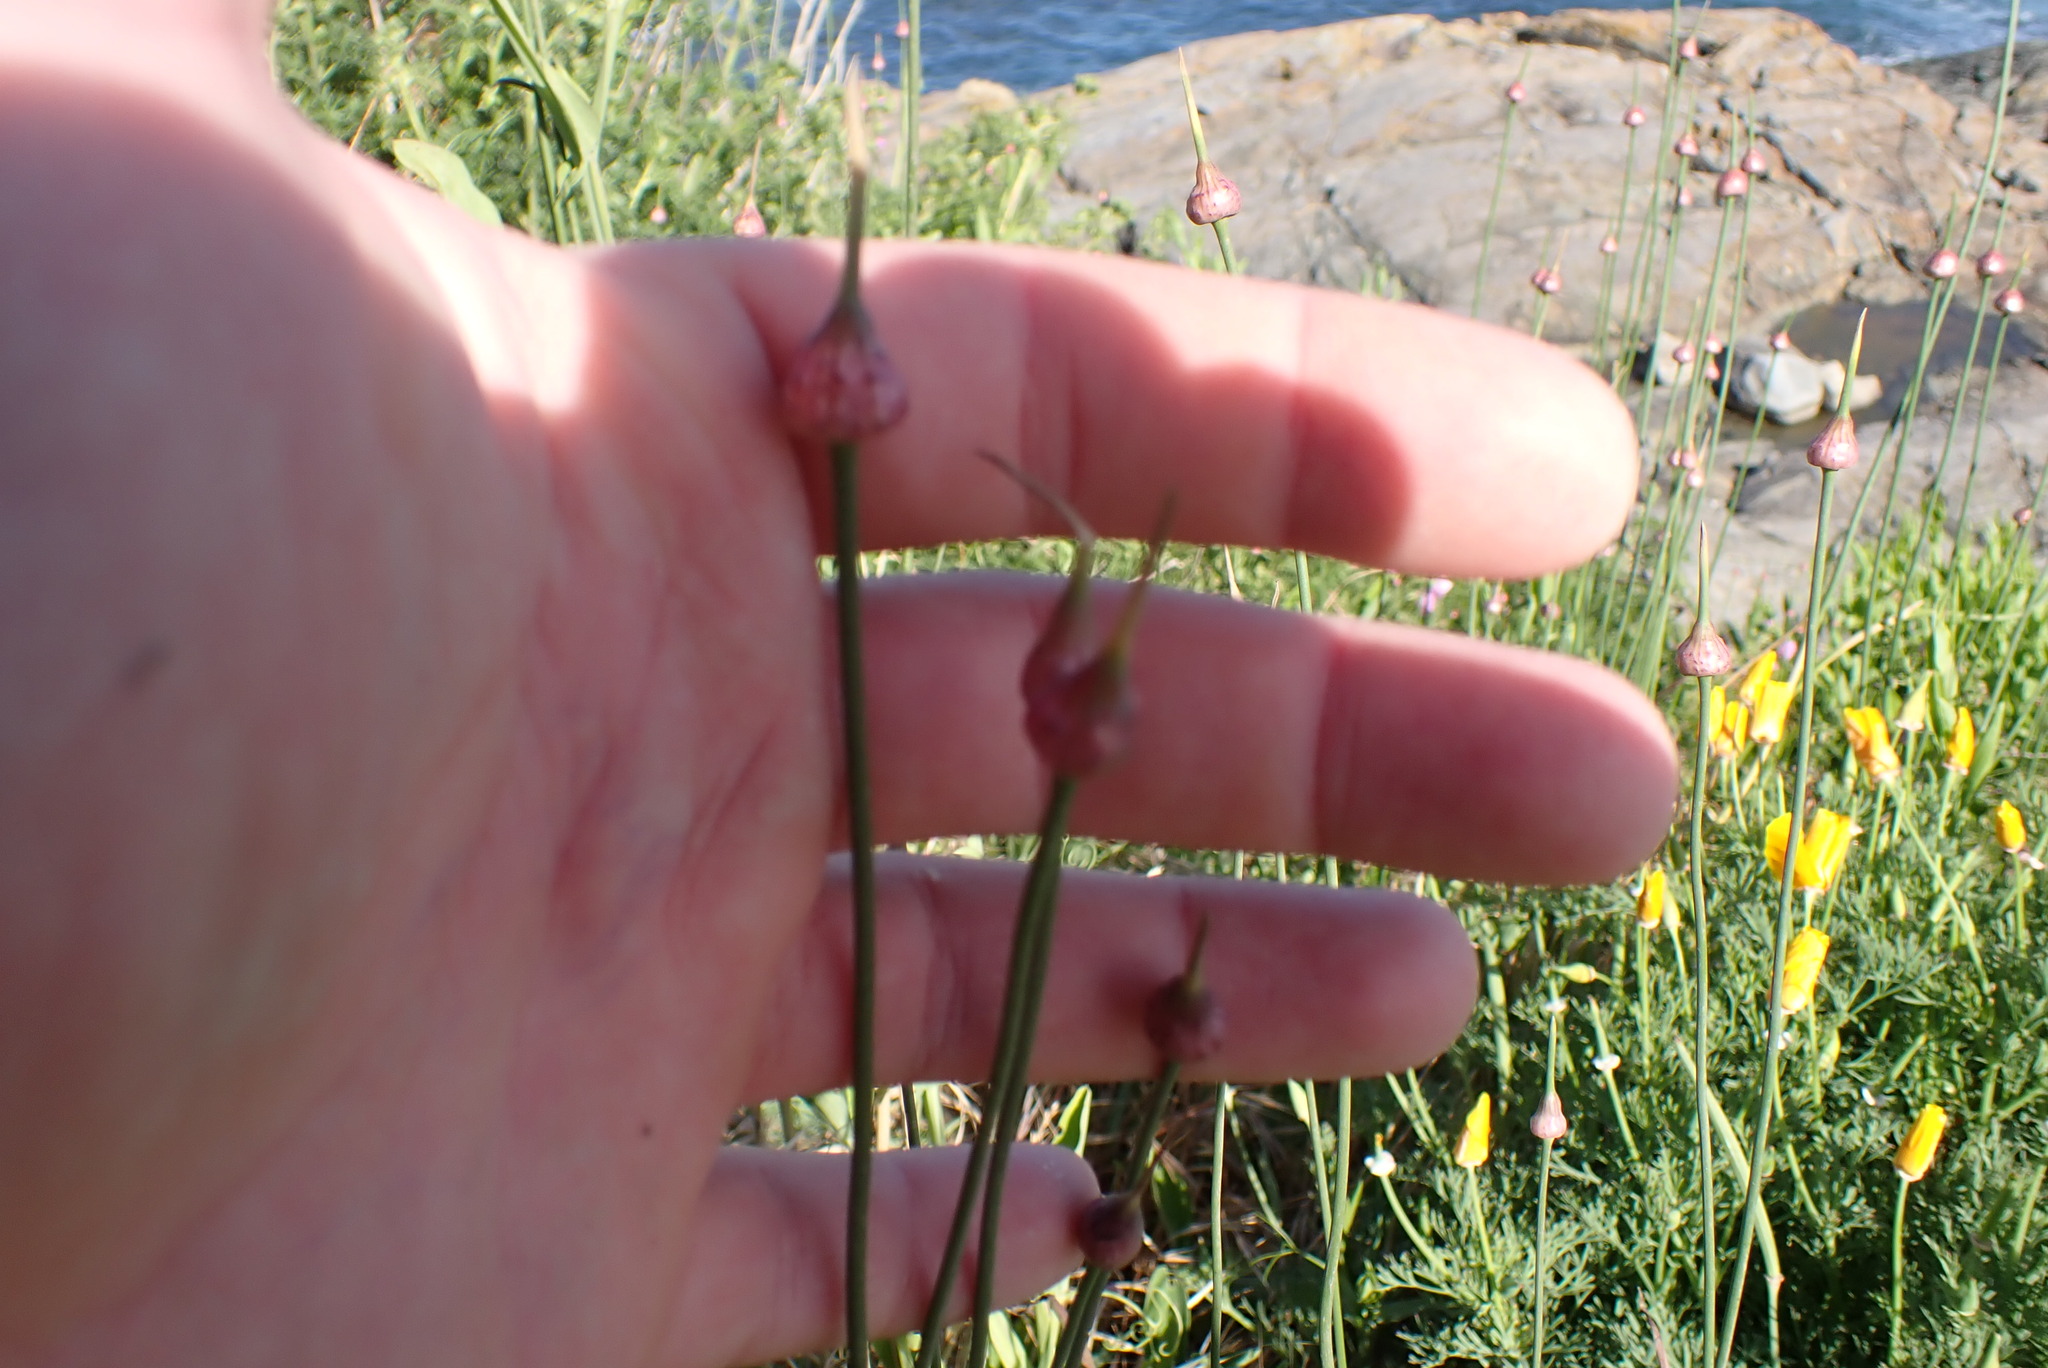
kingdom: Plantae
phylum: Tracheophyta
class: Liliopsida
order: Asparagales
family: Amaryllidaceae
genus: Allium
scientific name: Allium vineale
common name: Crow garlic
